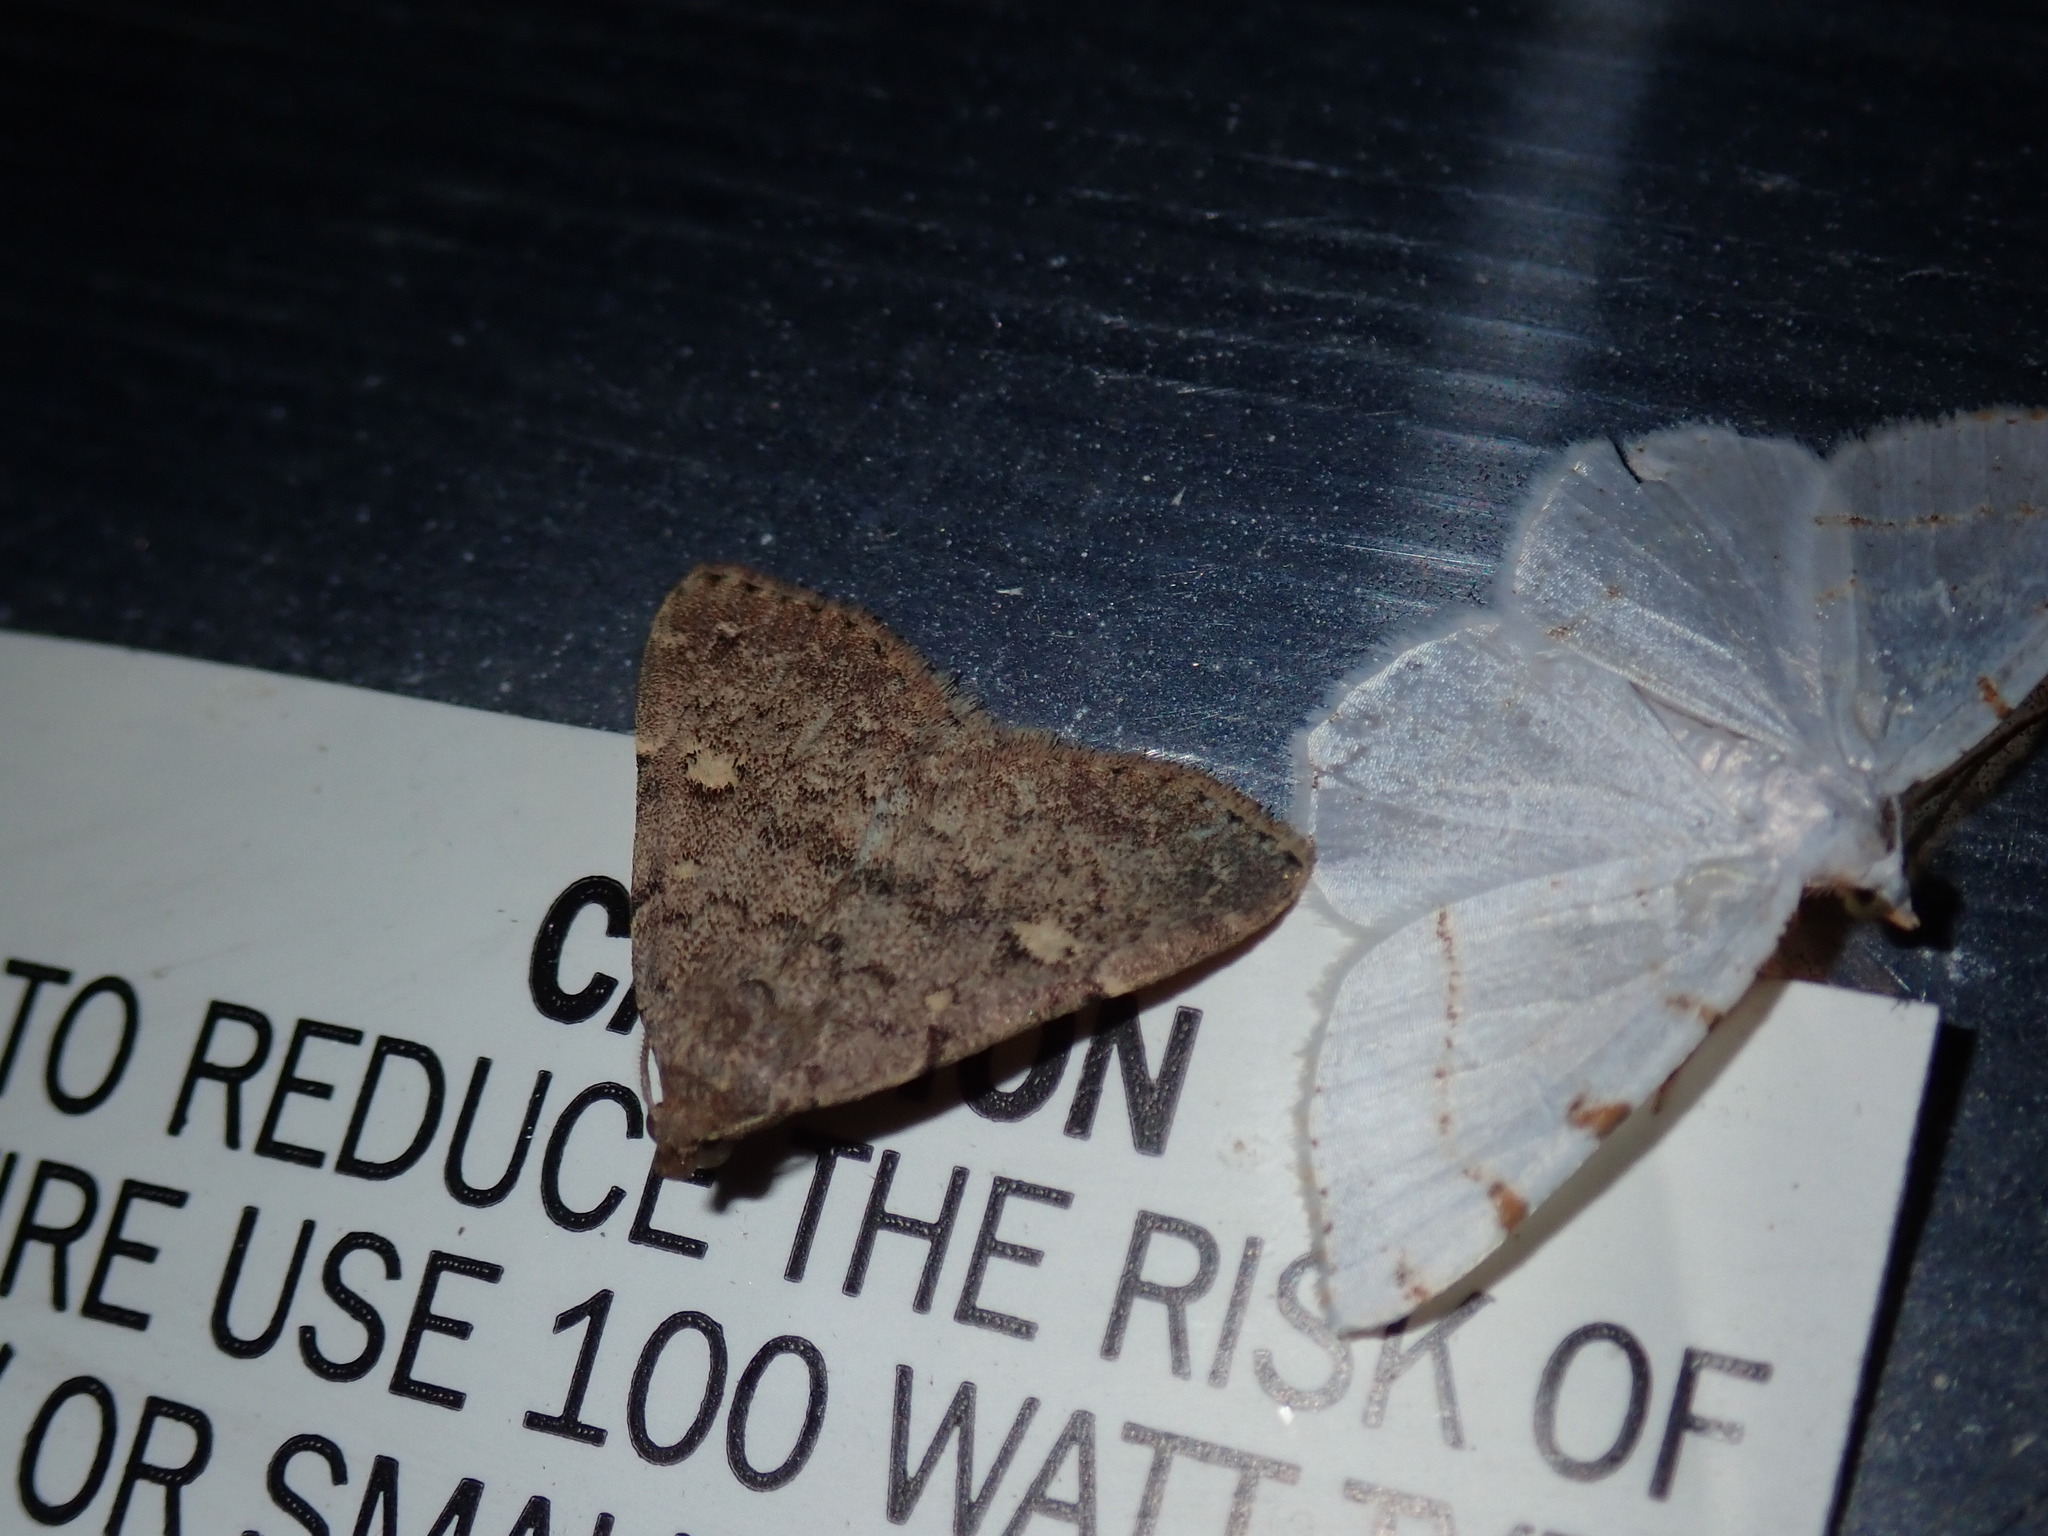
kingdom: Animalia
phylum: Arthropoda
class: Insecta
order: Lepidoptera
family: Erebidae
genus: Idia
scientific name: Idia aemula
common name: Common idia moth
